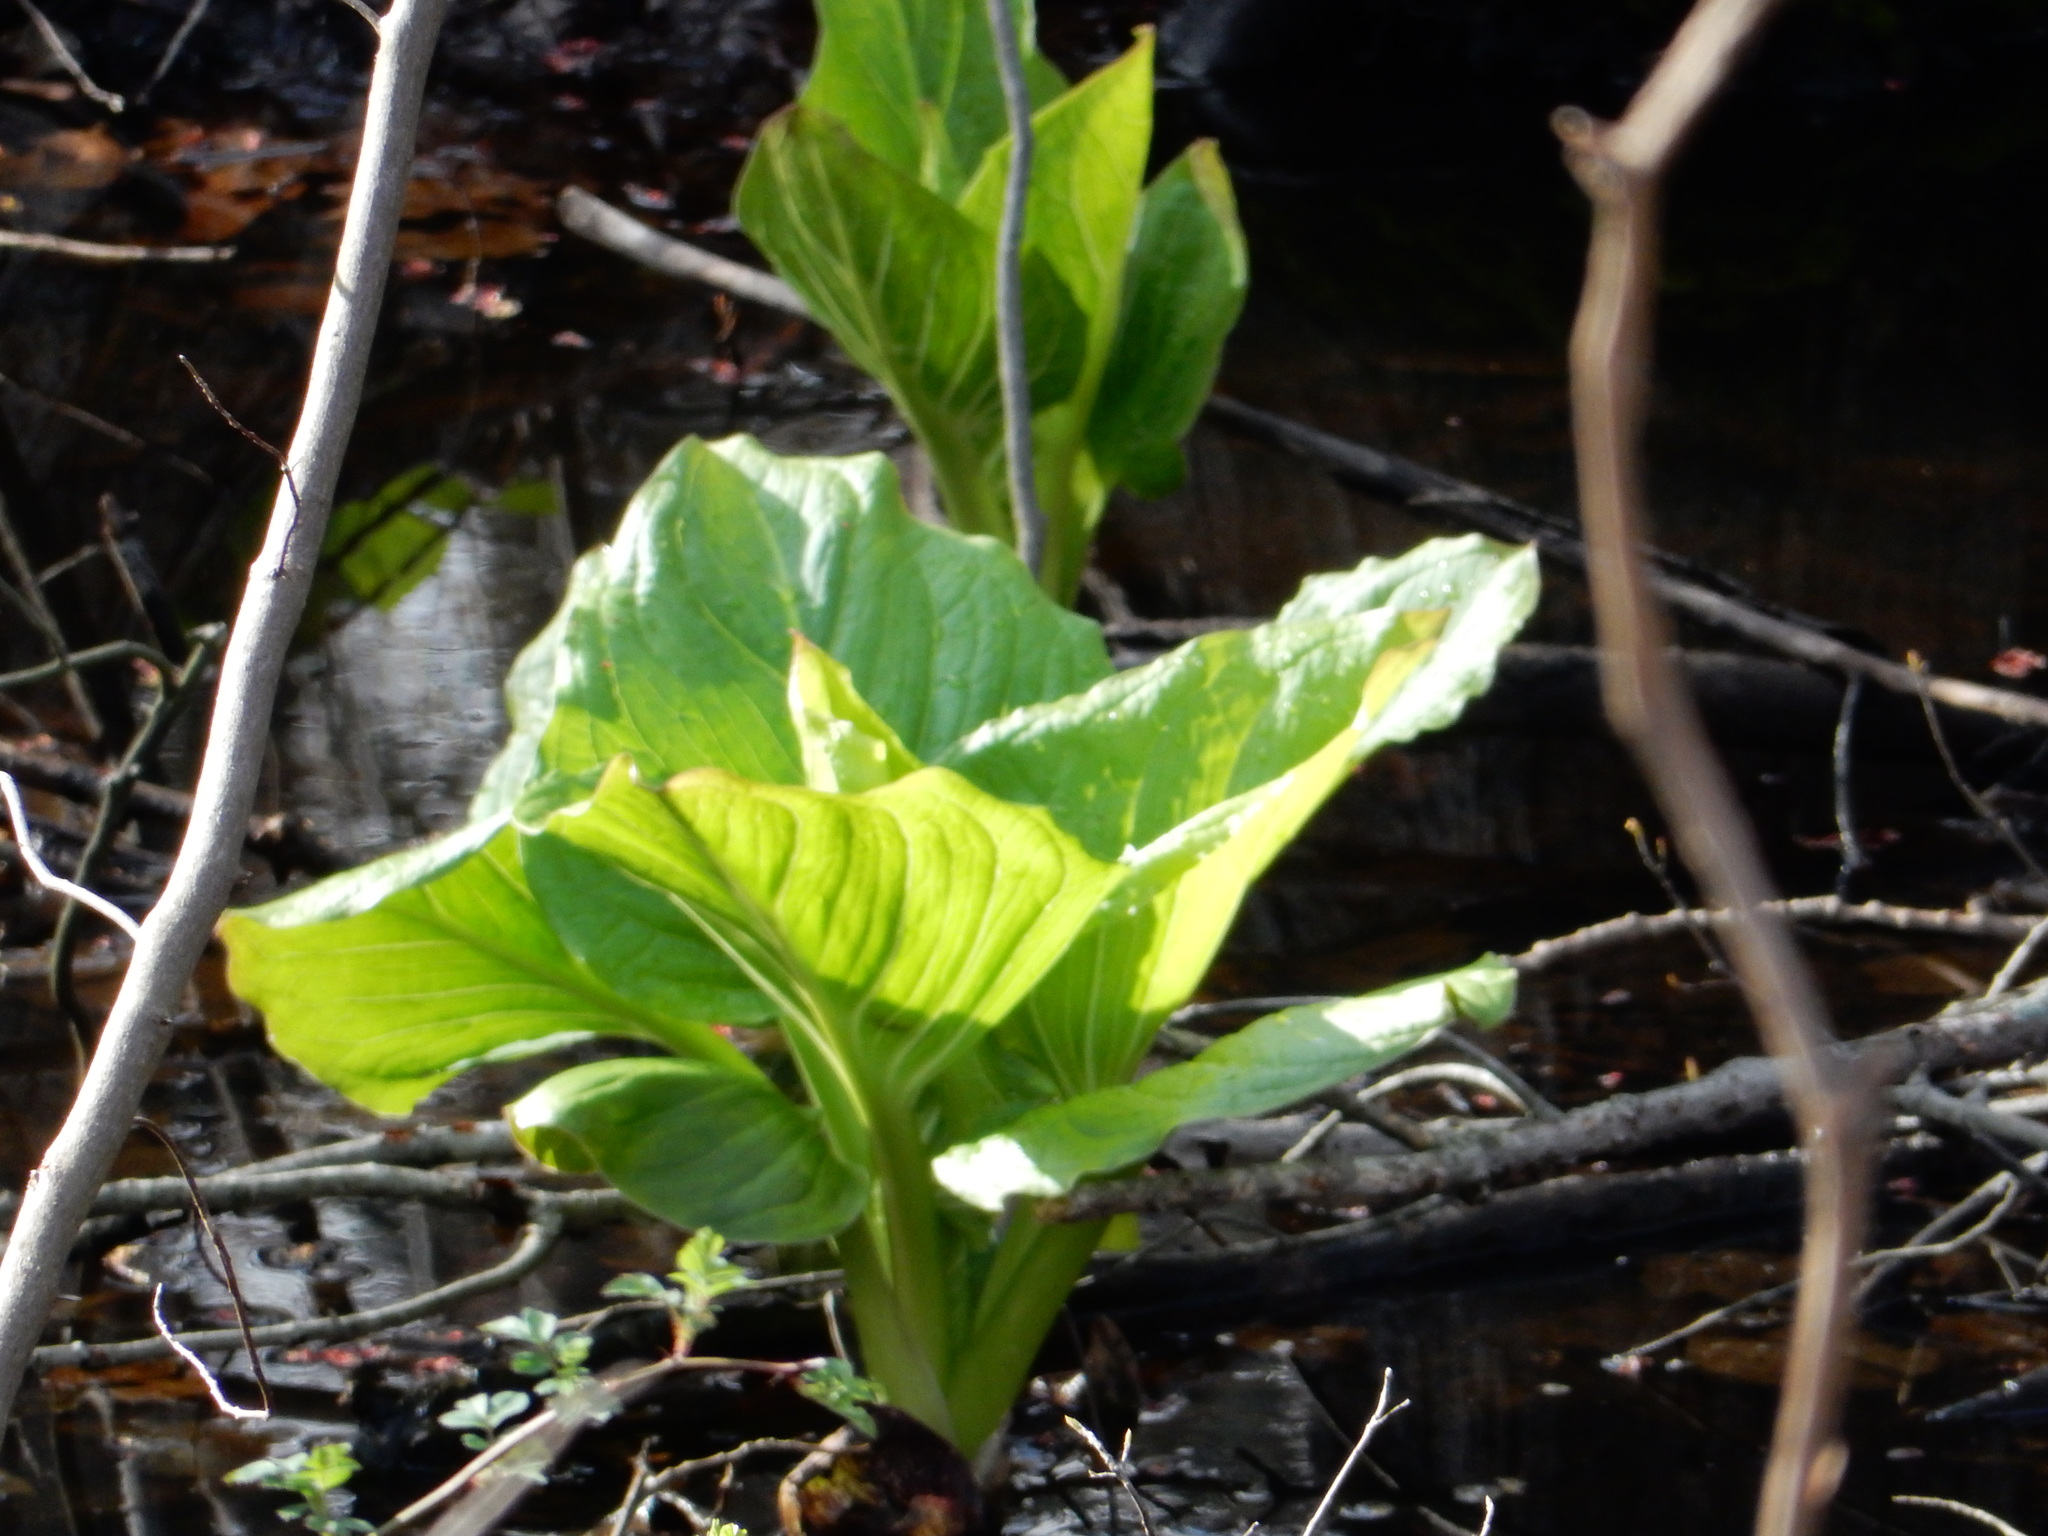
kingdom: Plantae
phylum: Tracheophyta
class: Liliopsida
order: Alismatales
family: Araceae
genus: Symplocarpus
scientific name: Symplocarpus foetidus
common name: Eastern skunk cabbage
